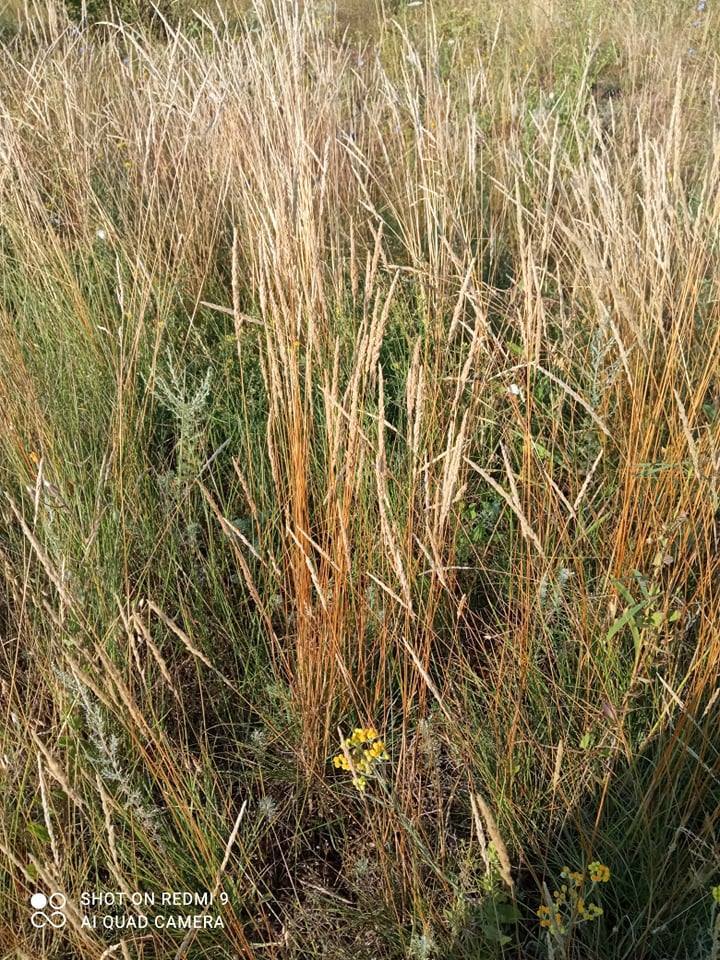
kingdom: Plantae
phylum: Tracheophyta
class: Liliopsida
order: Poales
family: Poaceae
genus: Koeleria
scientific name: Koeleria macrantha
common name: Crested hair-grass
